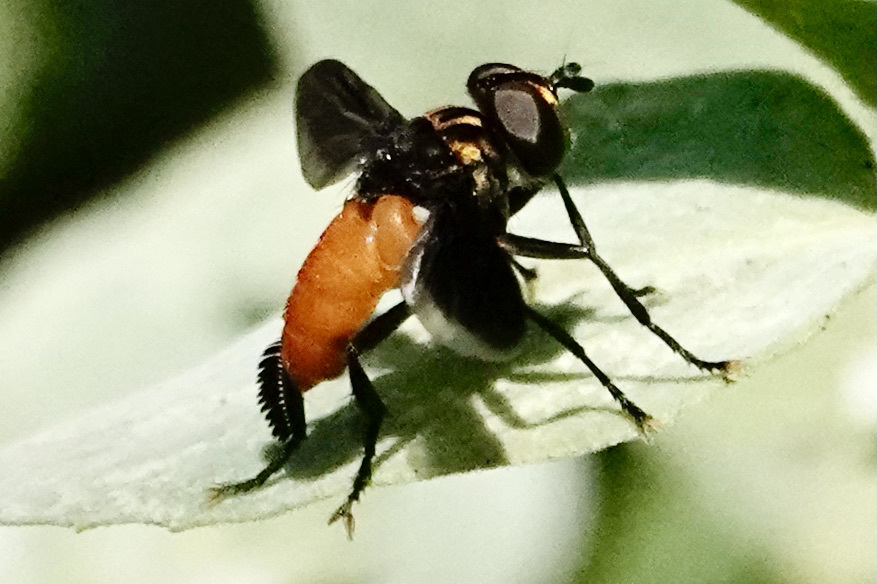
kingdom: Animalia
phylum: Arthropoda
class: Insecta
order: Diptera
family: Tachinidae
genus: Trichopoda
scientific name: Trichopoda pennipes
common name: Tachinid fly
